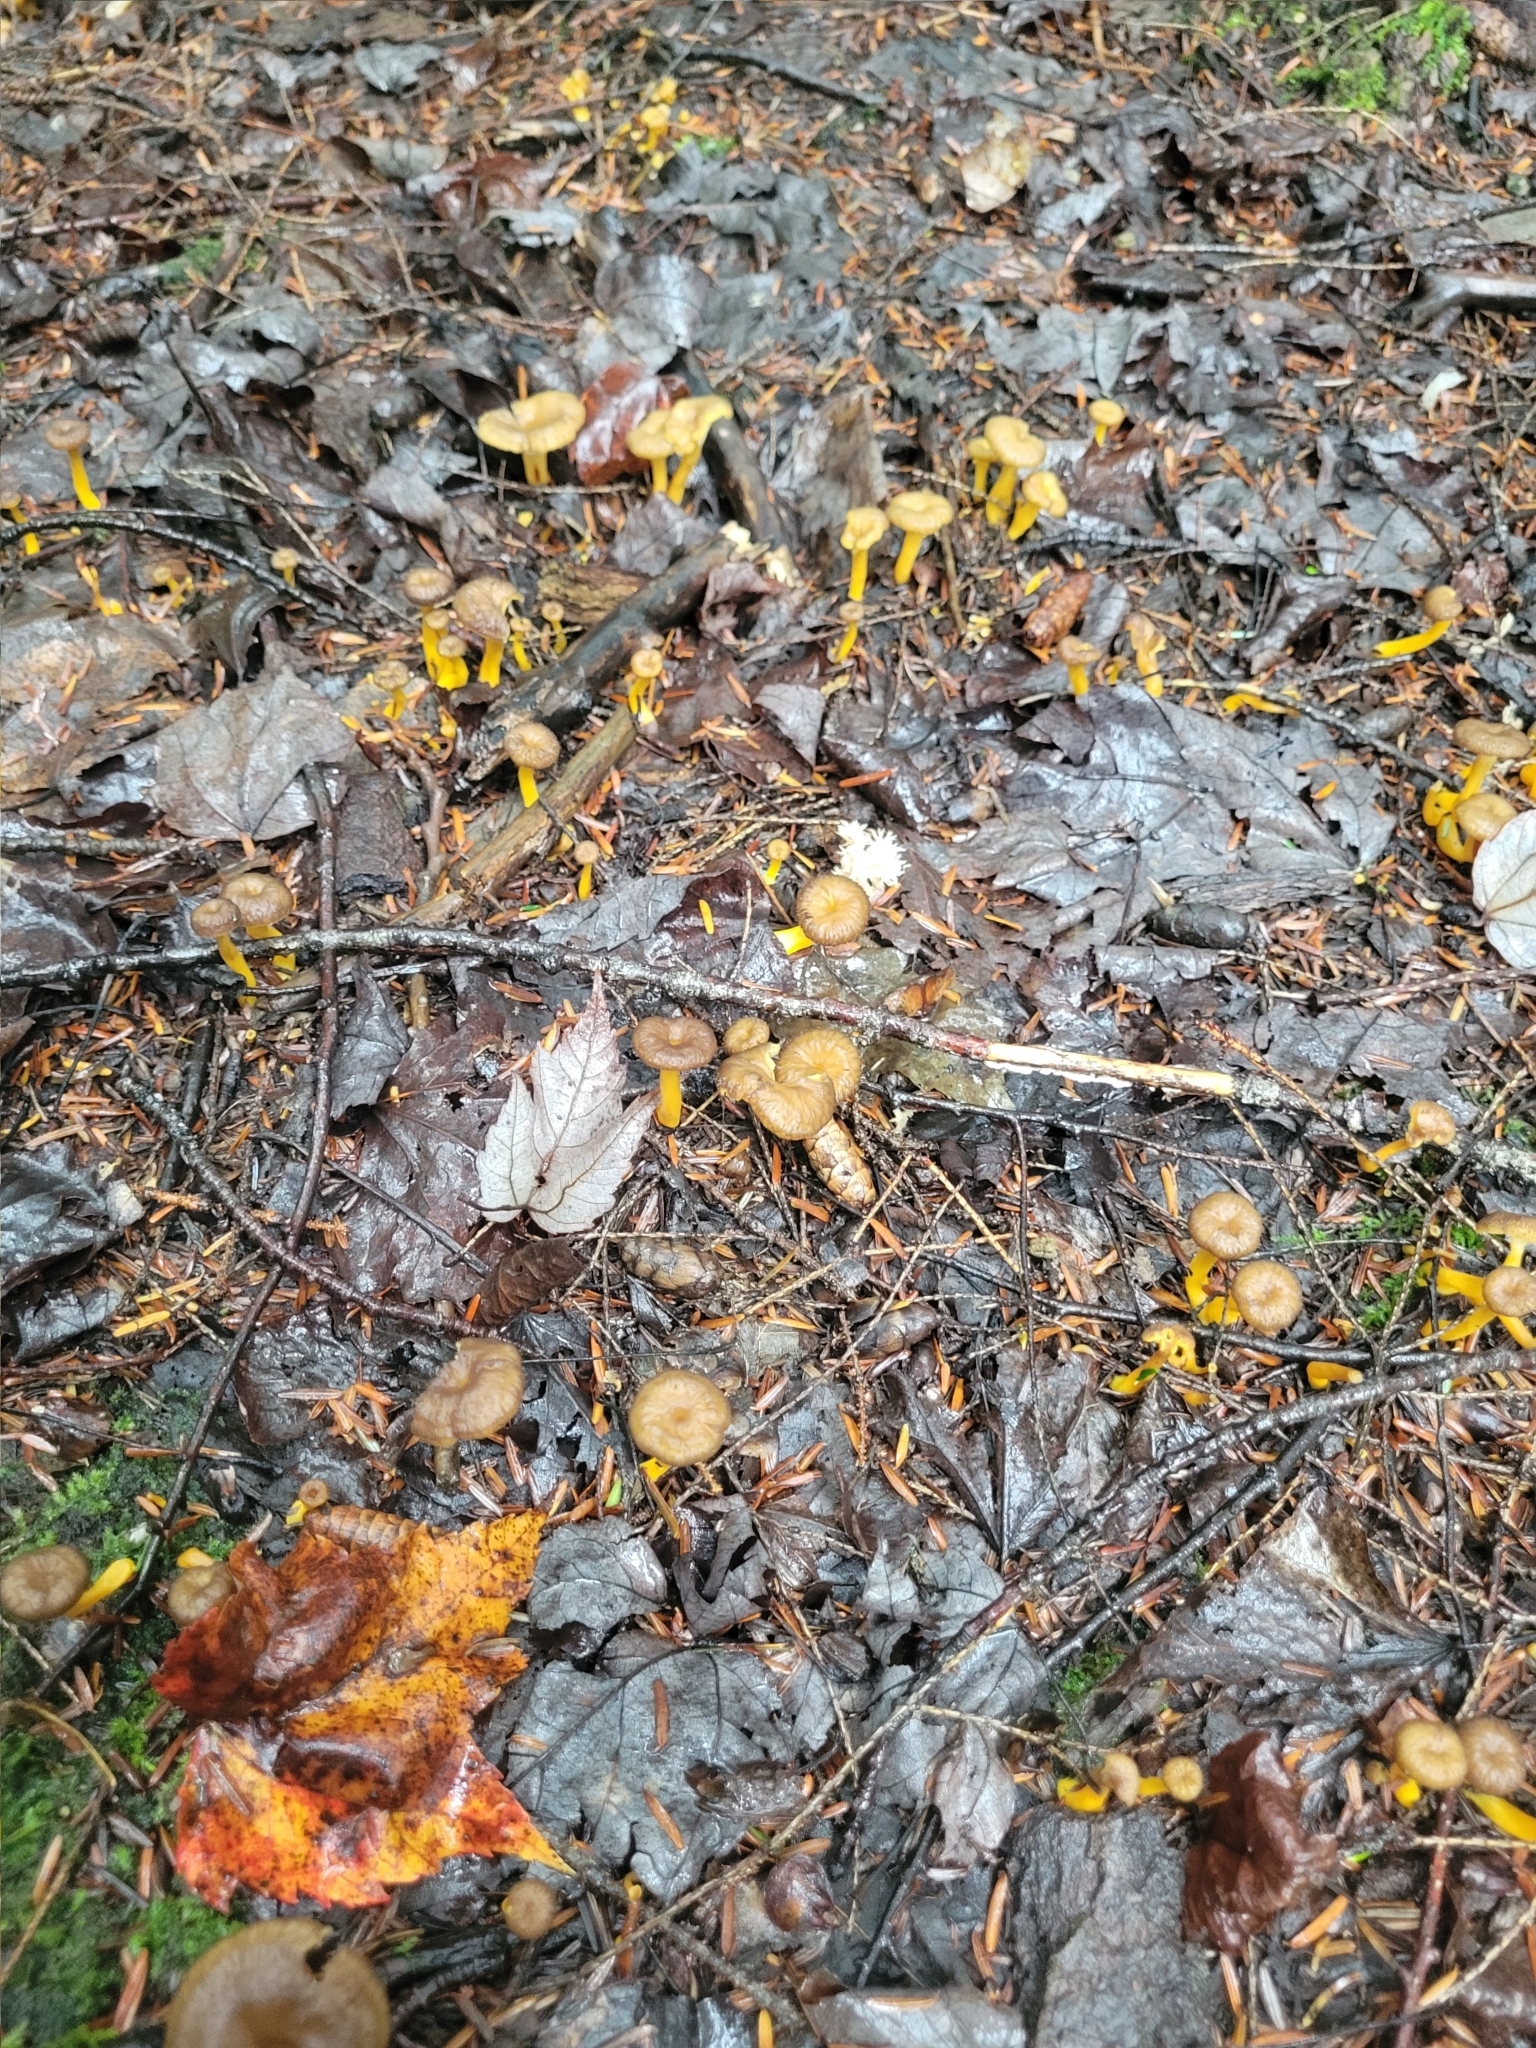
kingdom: Fungi
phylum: Basidiomycota
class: Agaricomycetes
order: Cantharellales
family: Hydnaceae
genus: Craterellus
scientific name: Craterellus tubaeformis
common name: Yellowfoot
